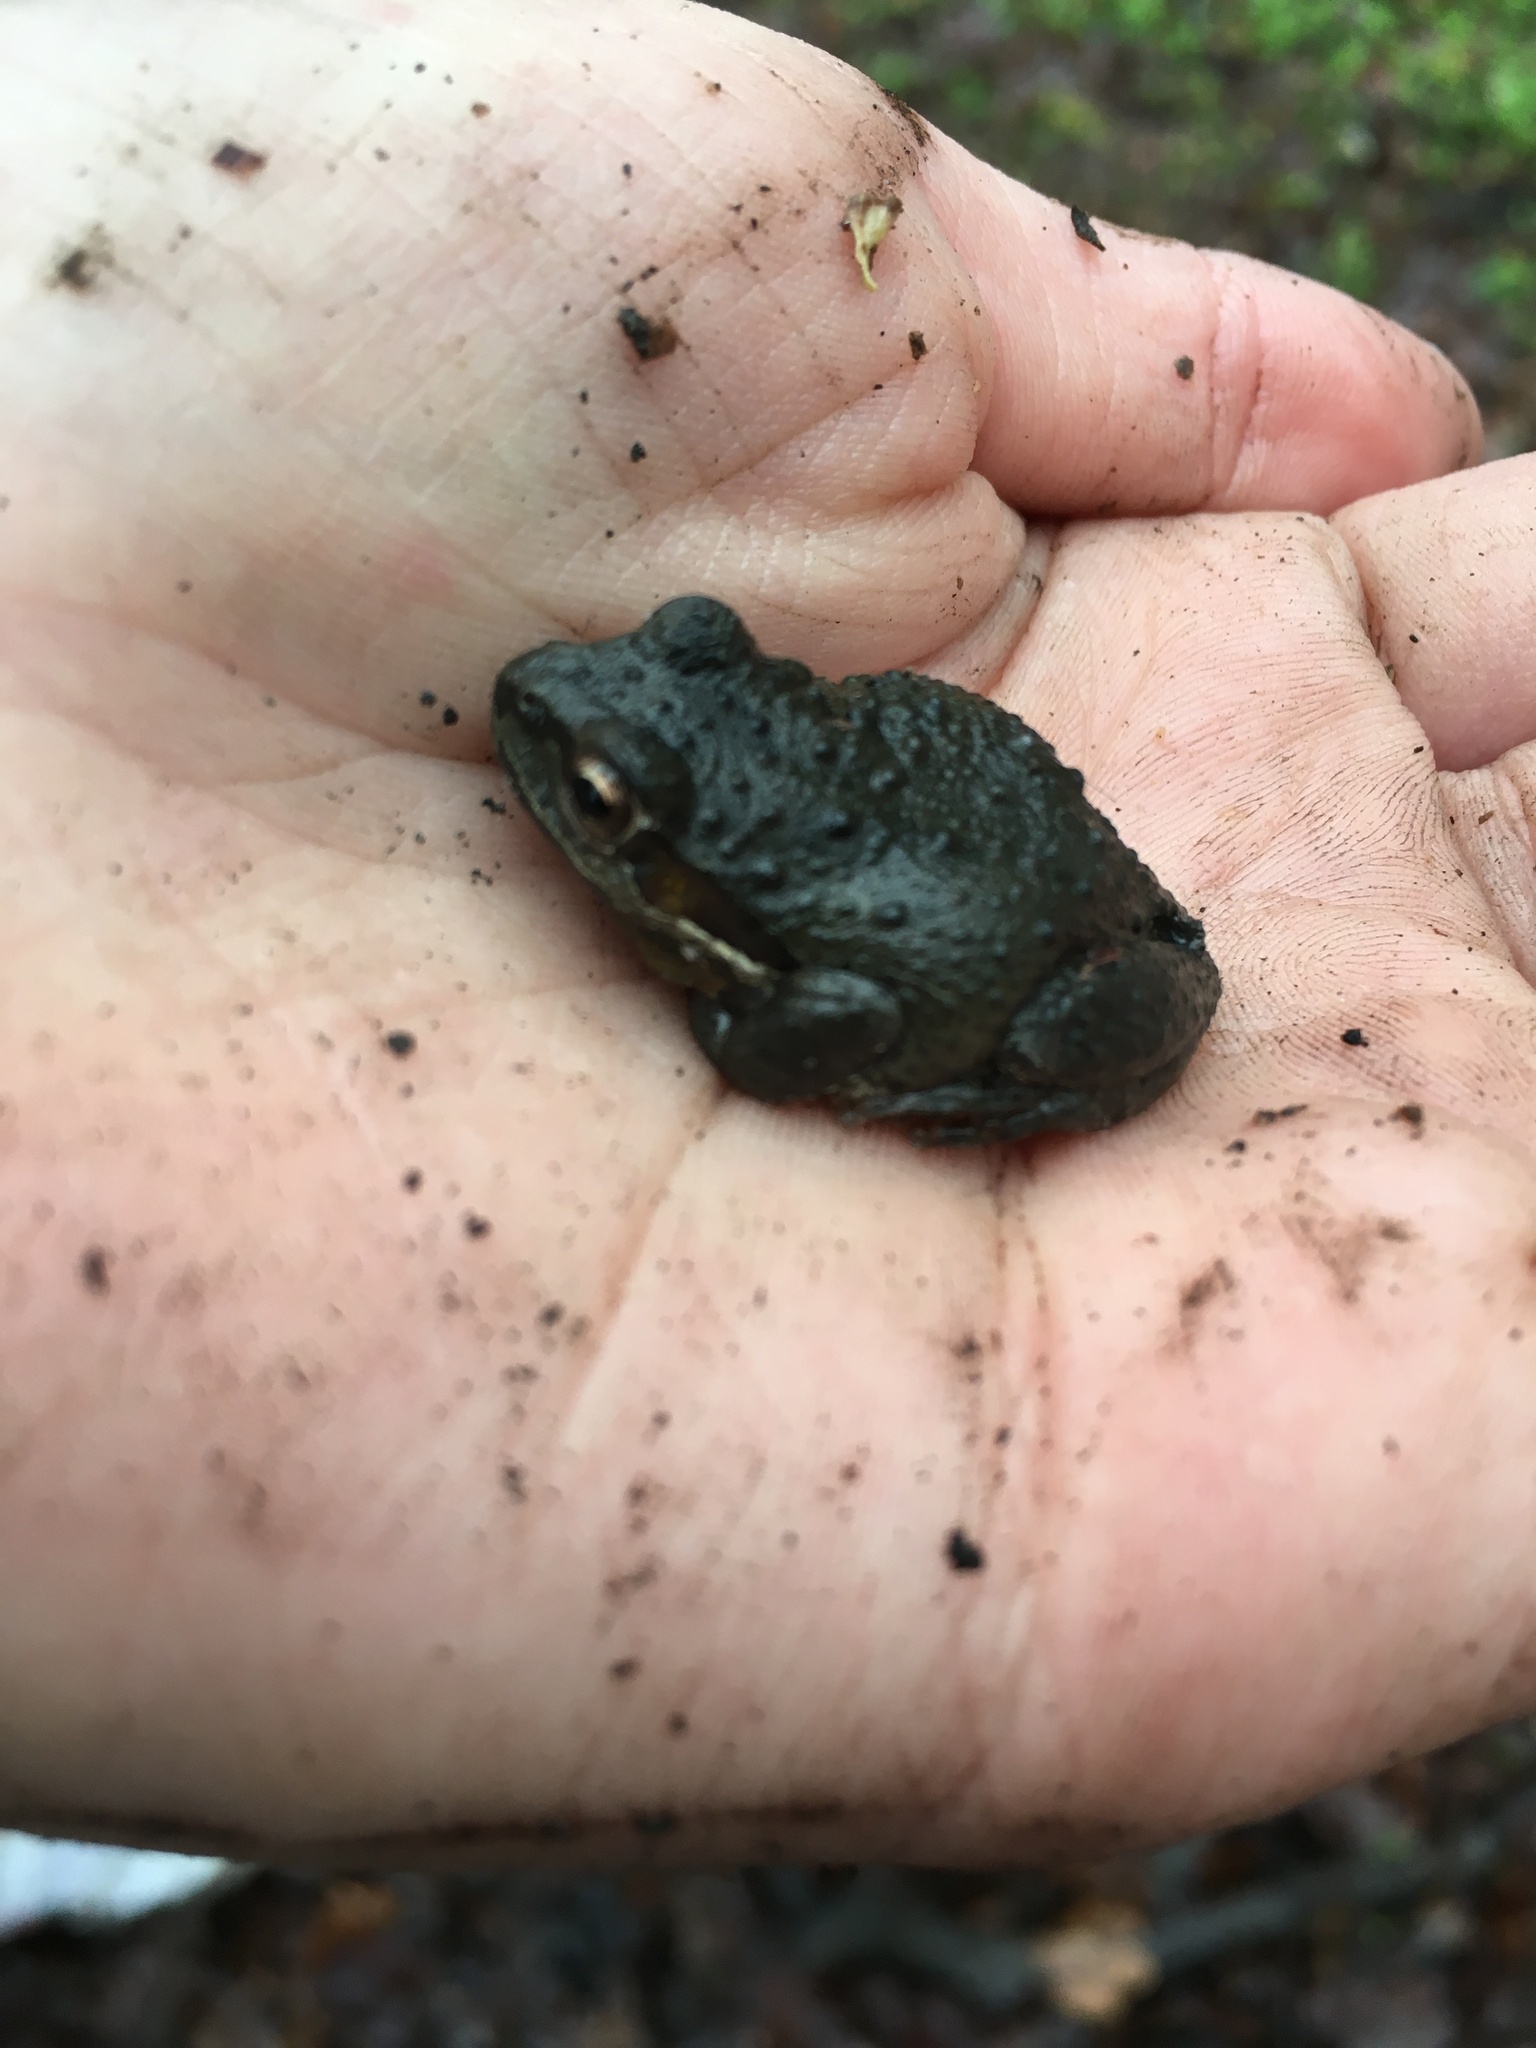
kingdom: Animalia
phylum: Chordata
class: Amphibia
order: Anura
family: Hylidae
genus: Pseudacris
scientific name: Pseudacris regilla
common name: Pacific chorus frog
